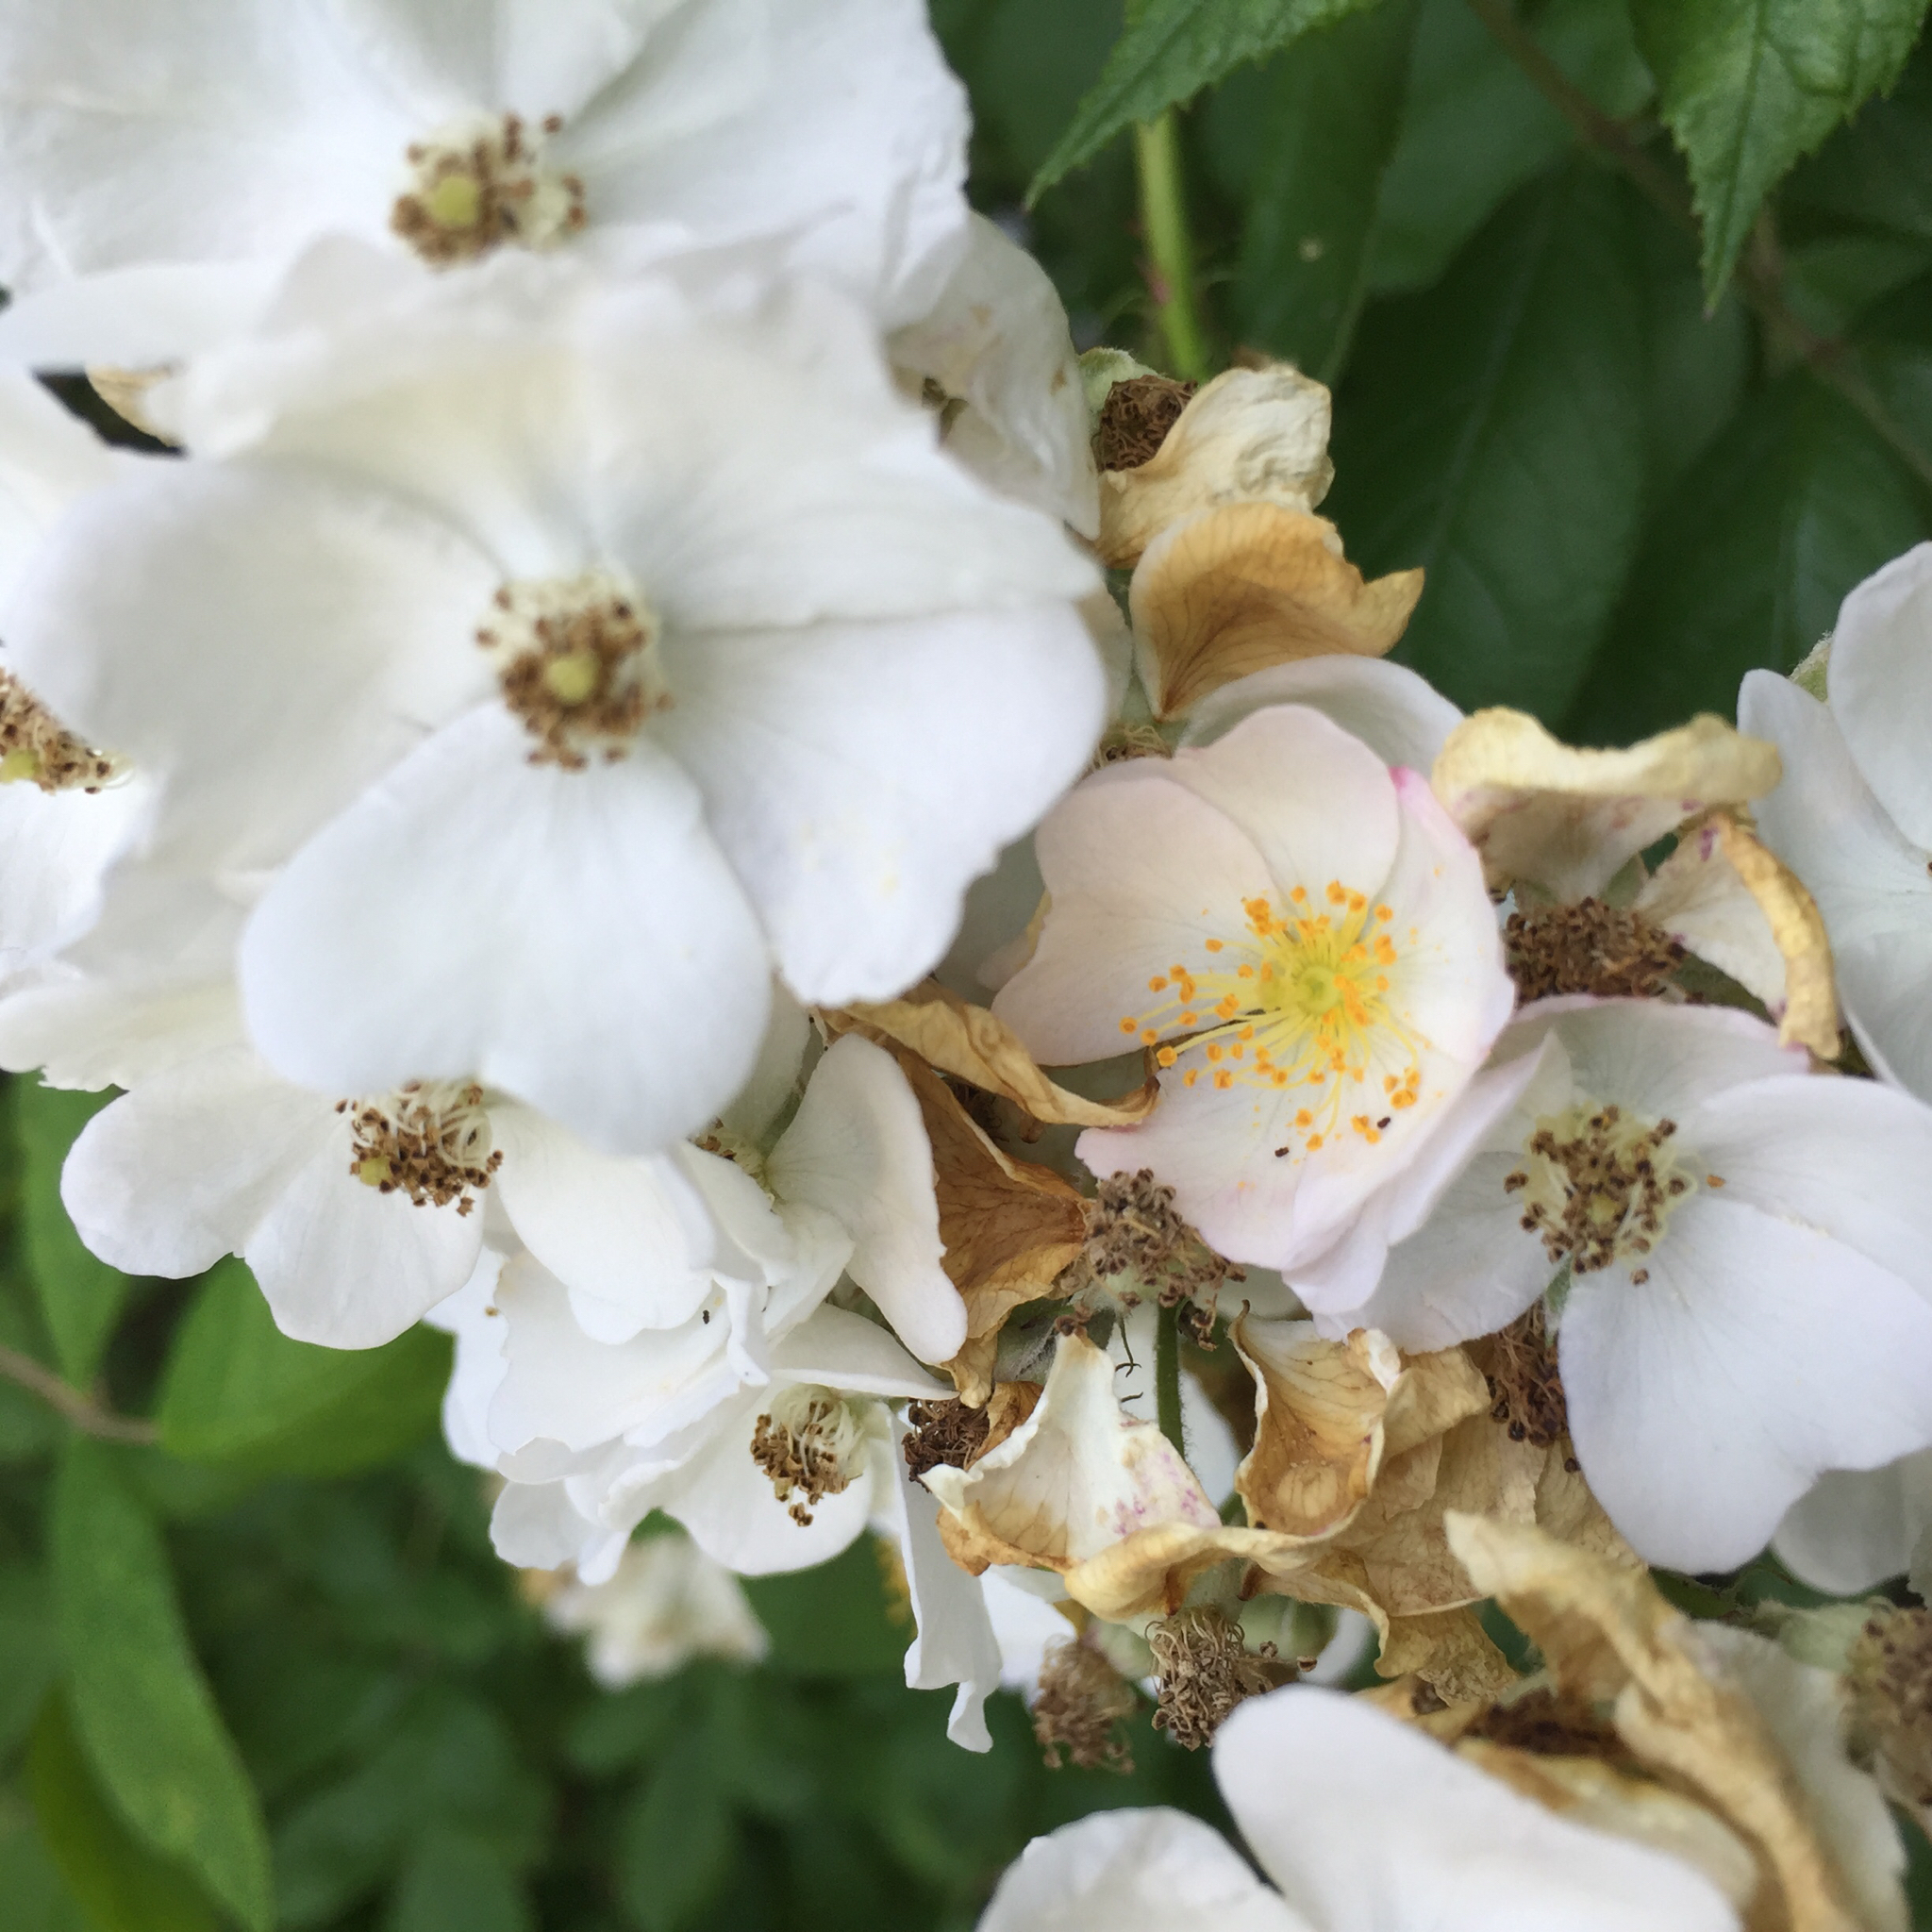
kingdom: Plantae
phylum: Tracheophyta
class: Magnoliopsida
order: Rosales
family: Rosaceae
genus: Rosa
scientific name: Rosa multiflora
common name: Multiflora rose
